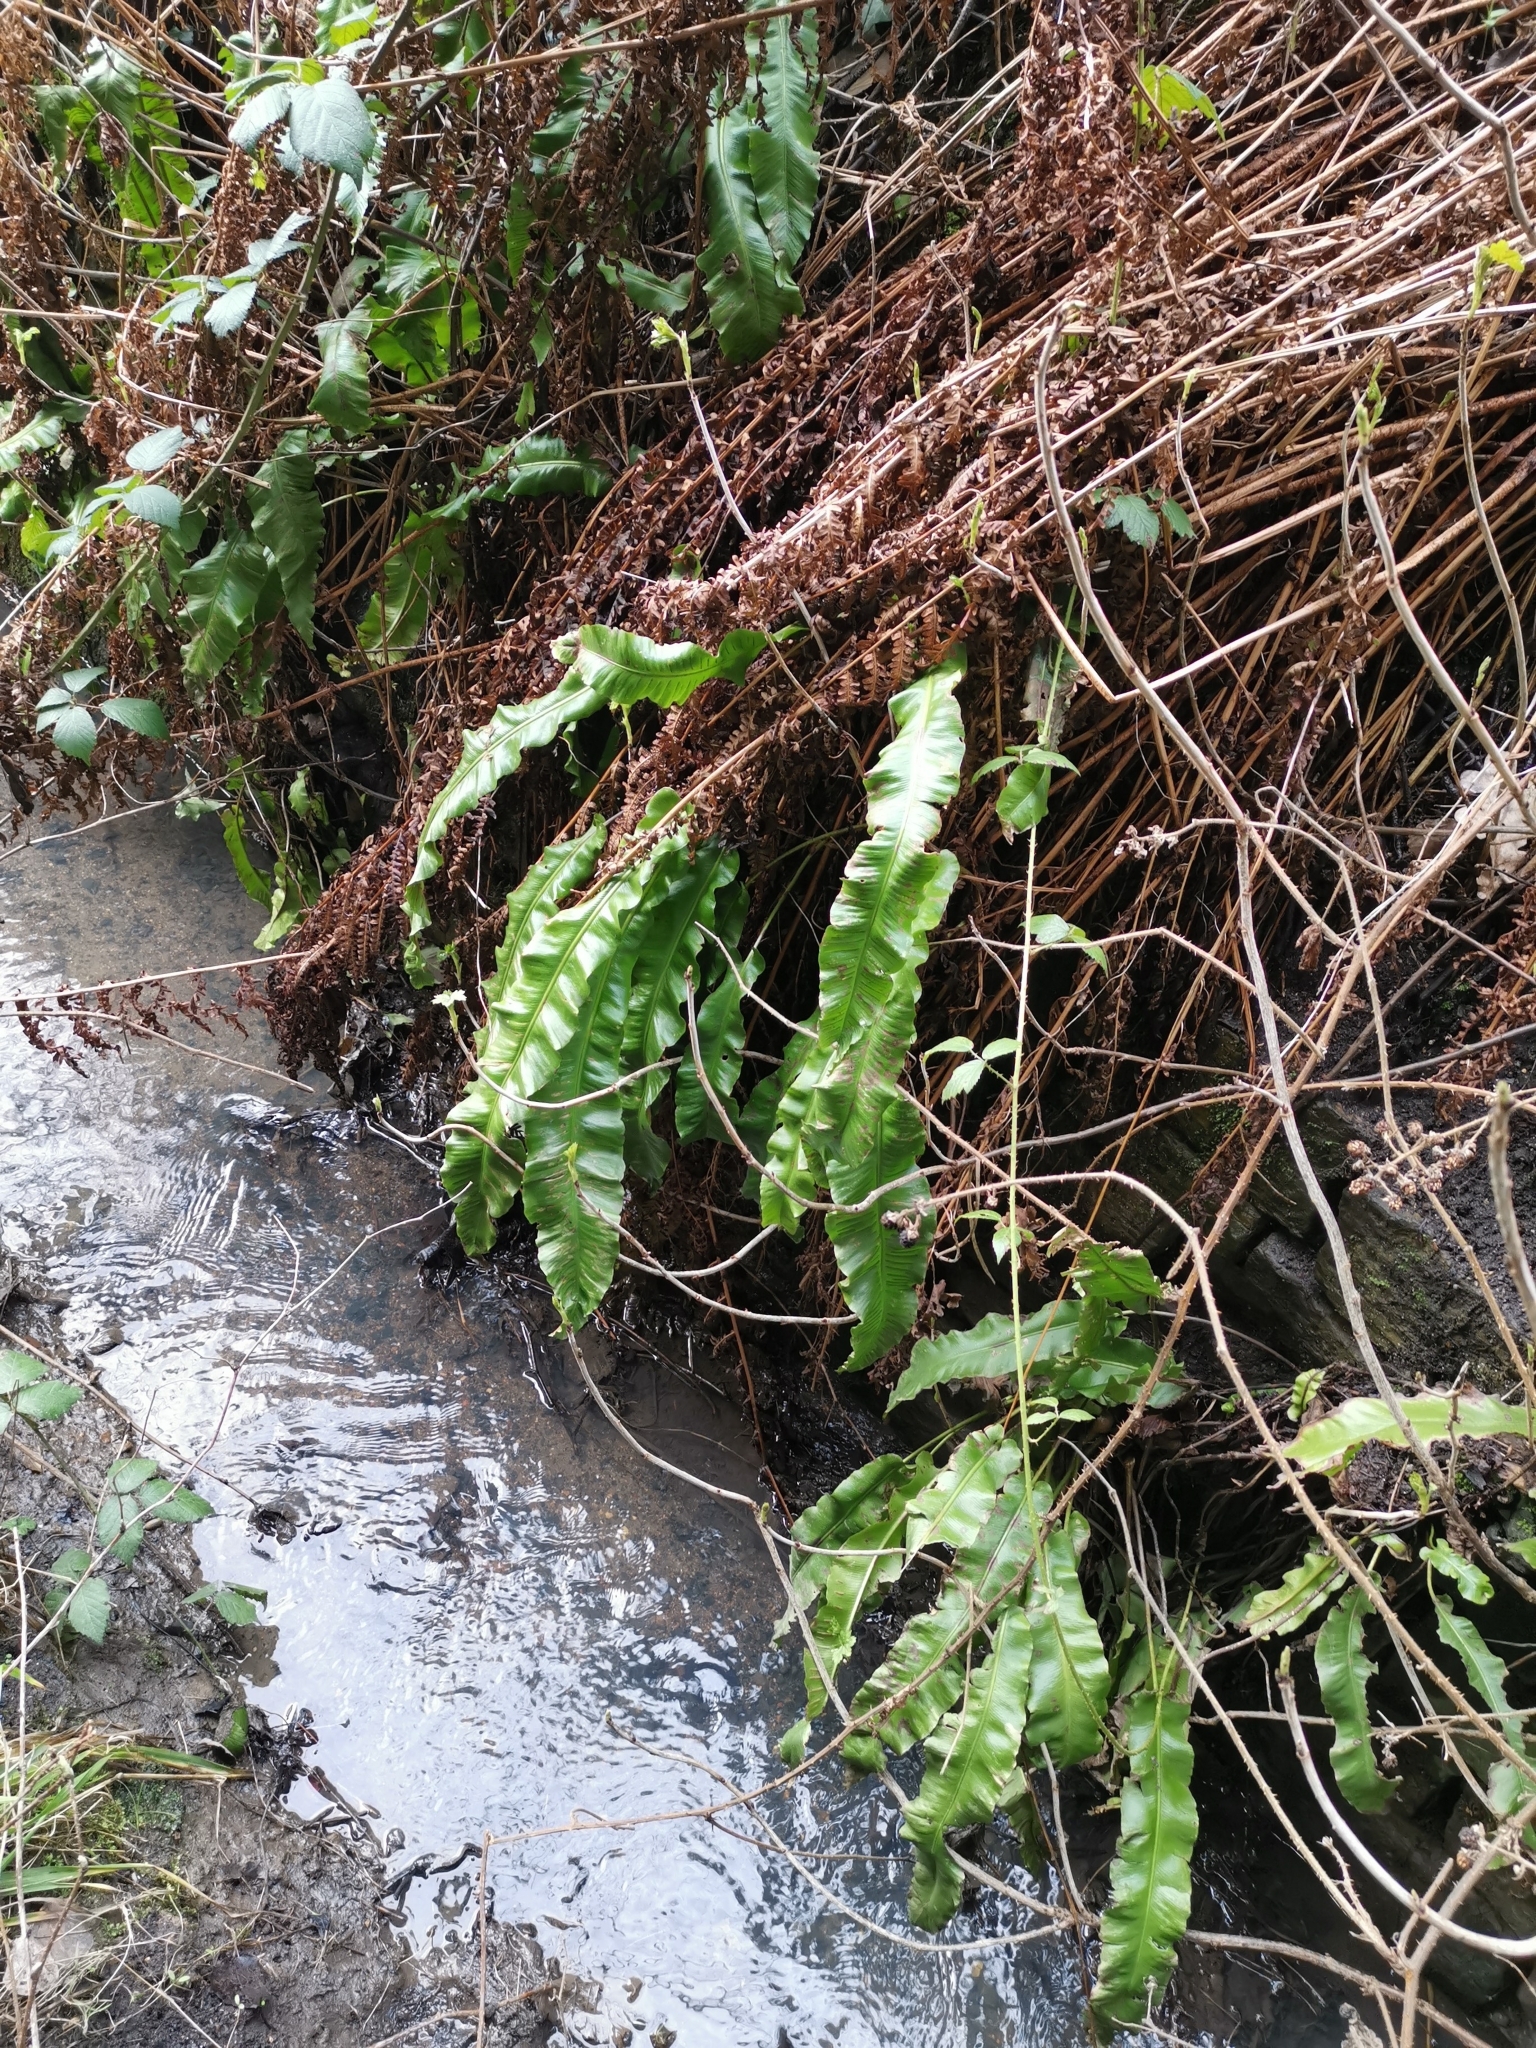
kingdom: Plantae
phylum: Tracheophyta
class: Polypodiopsida
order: Polypodiales
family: Aspleniaceae
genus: Asplenium
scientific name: Asplenium scolopendrium
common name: Hart's-tongue fern
